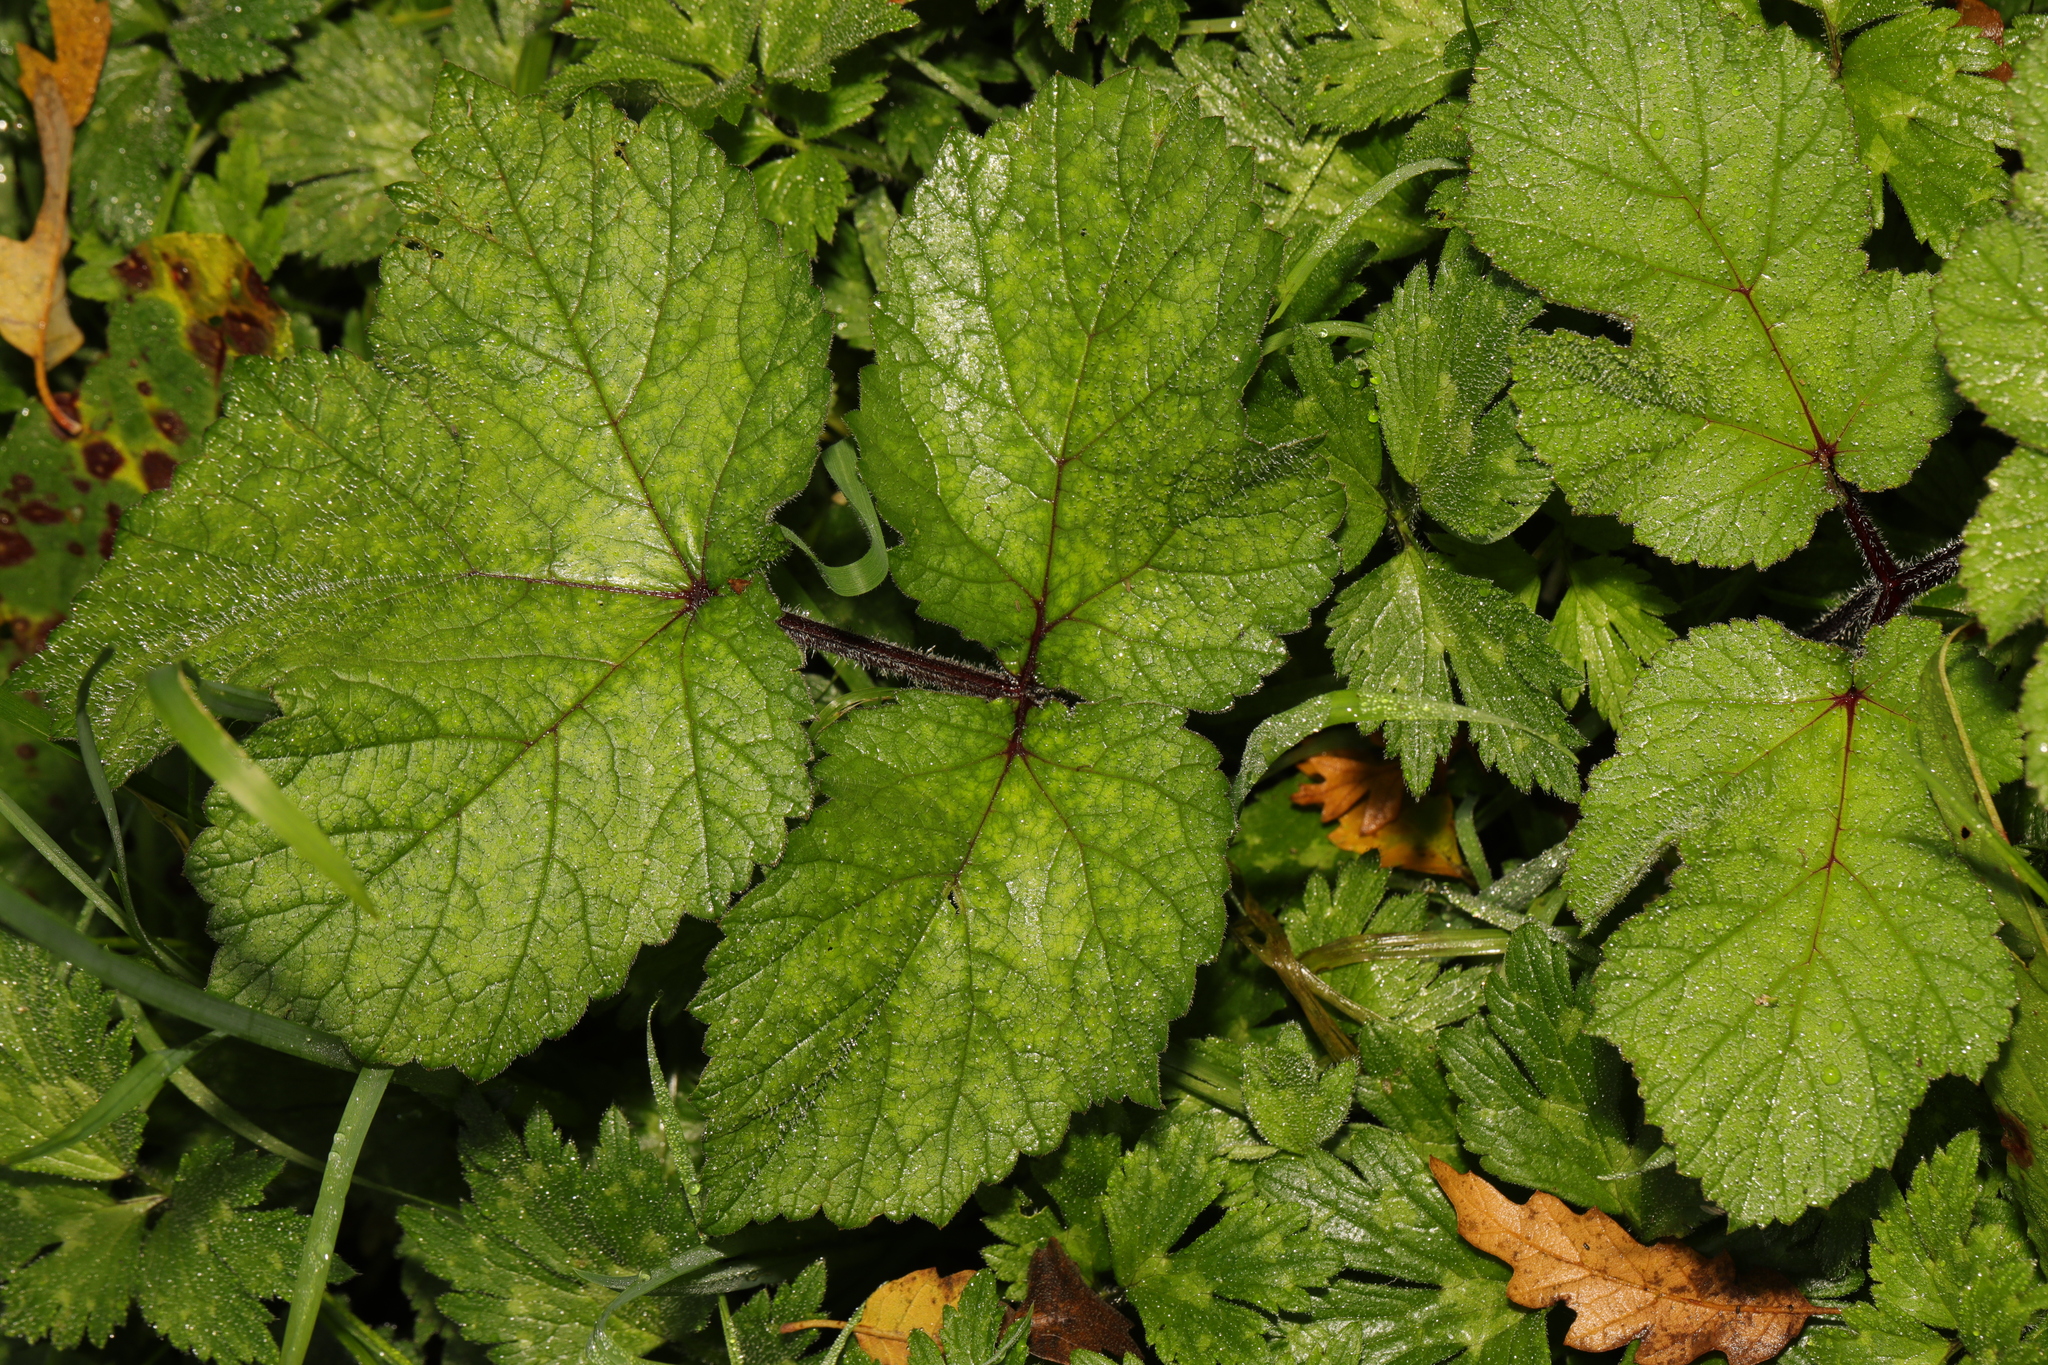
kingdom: Plantae
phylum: Tracheophyta
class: Magnoliopsida
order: Apiales
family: Apiaceae
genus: Heracleum
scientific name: Heracleum sphondylium
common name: Hogweed
